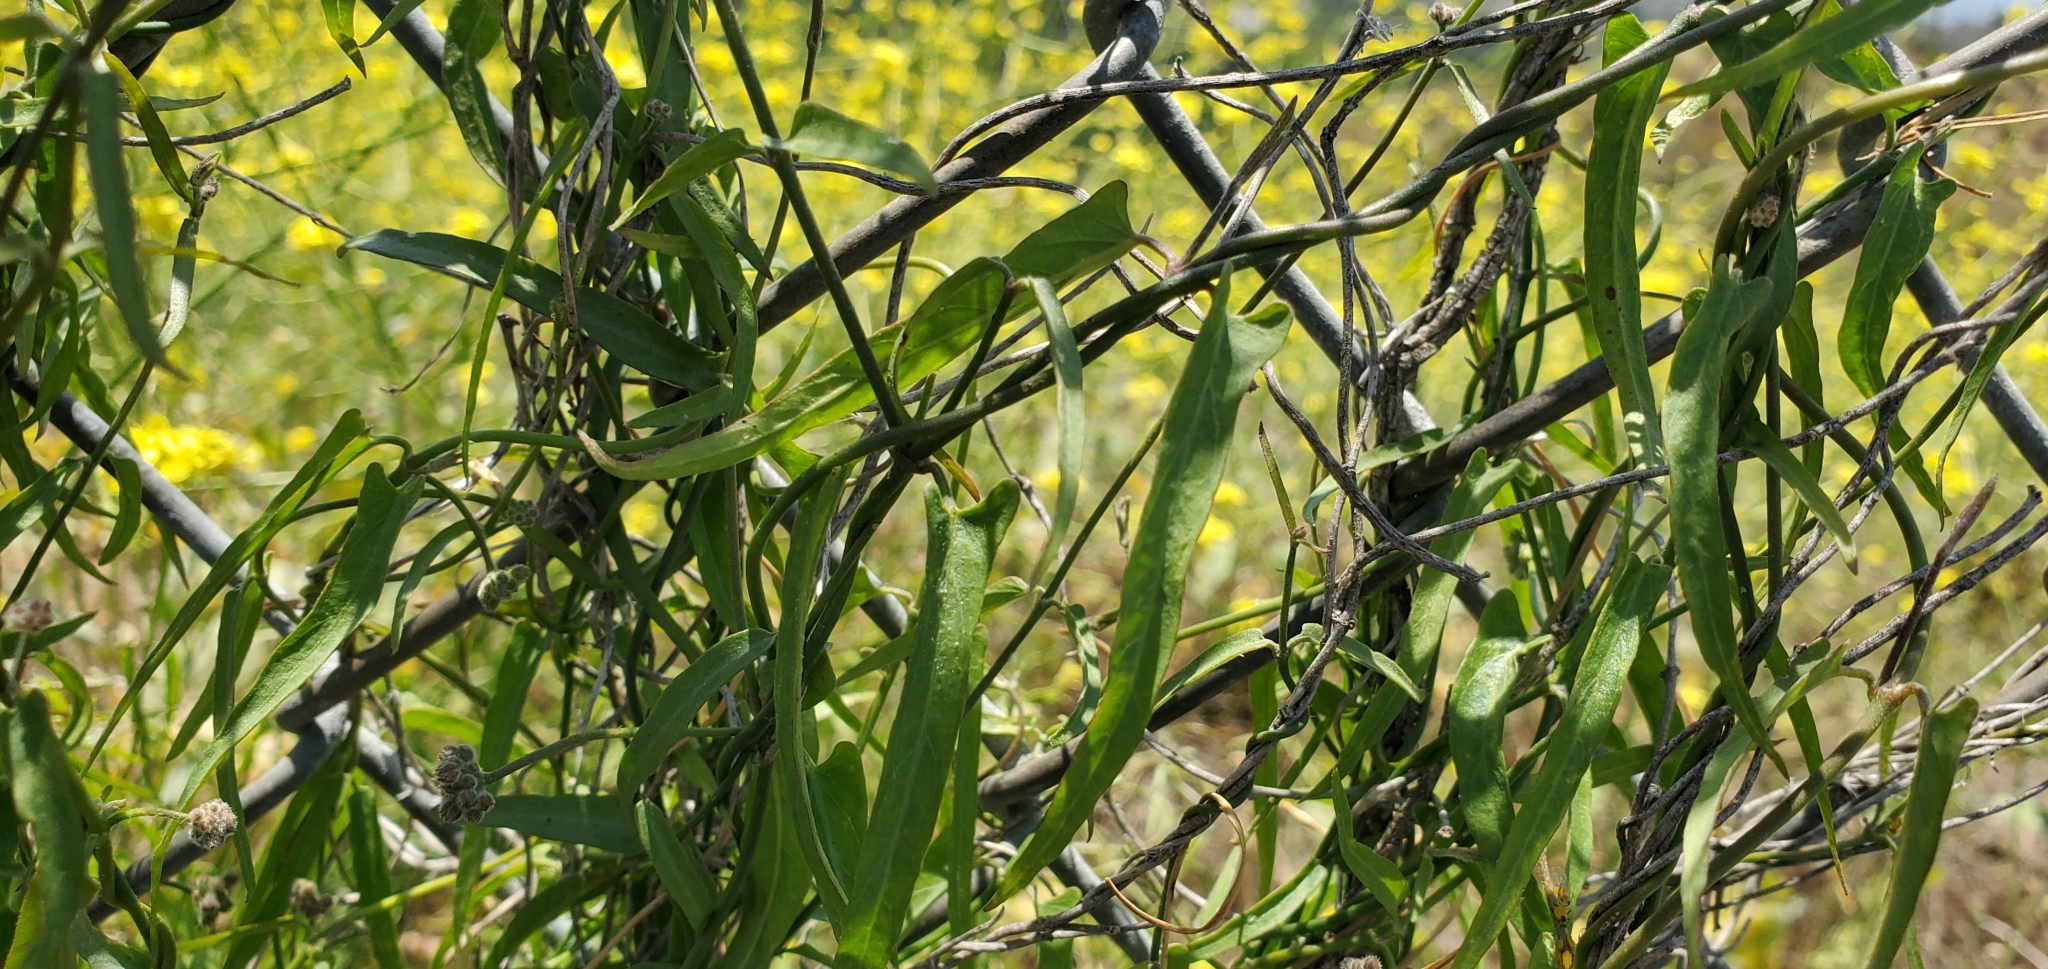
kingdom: Plantae
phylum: Tracheophyta
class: Magnoliopsida
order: Gentianales
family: Apocynaceae
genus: Funastrum
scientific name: Funastrum heterophyllum
